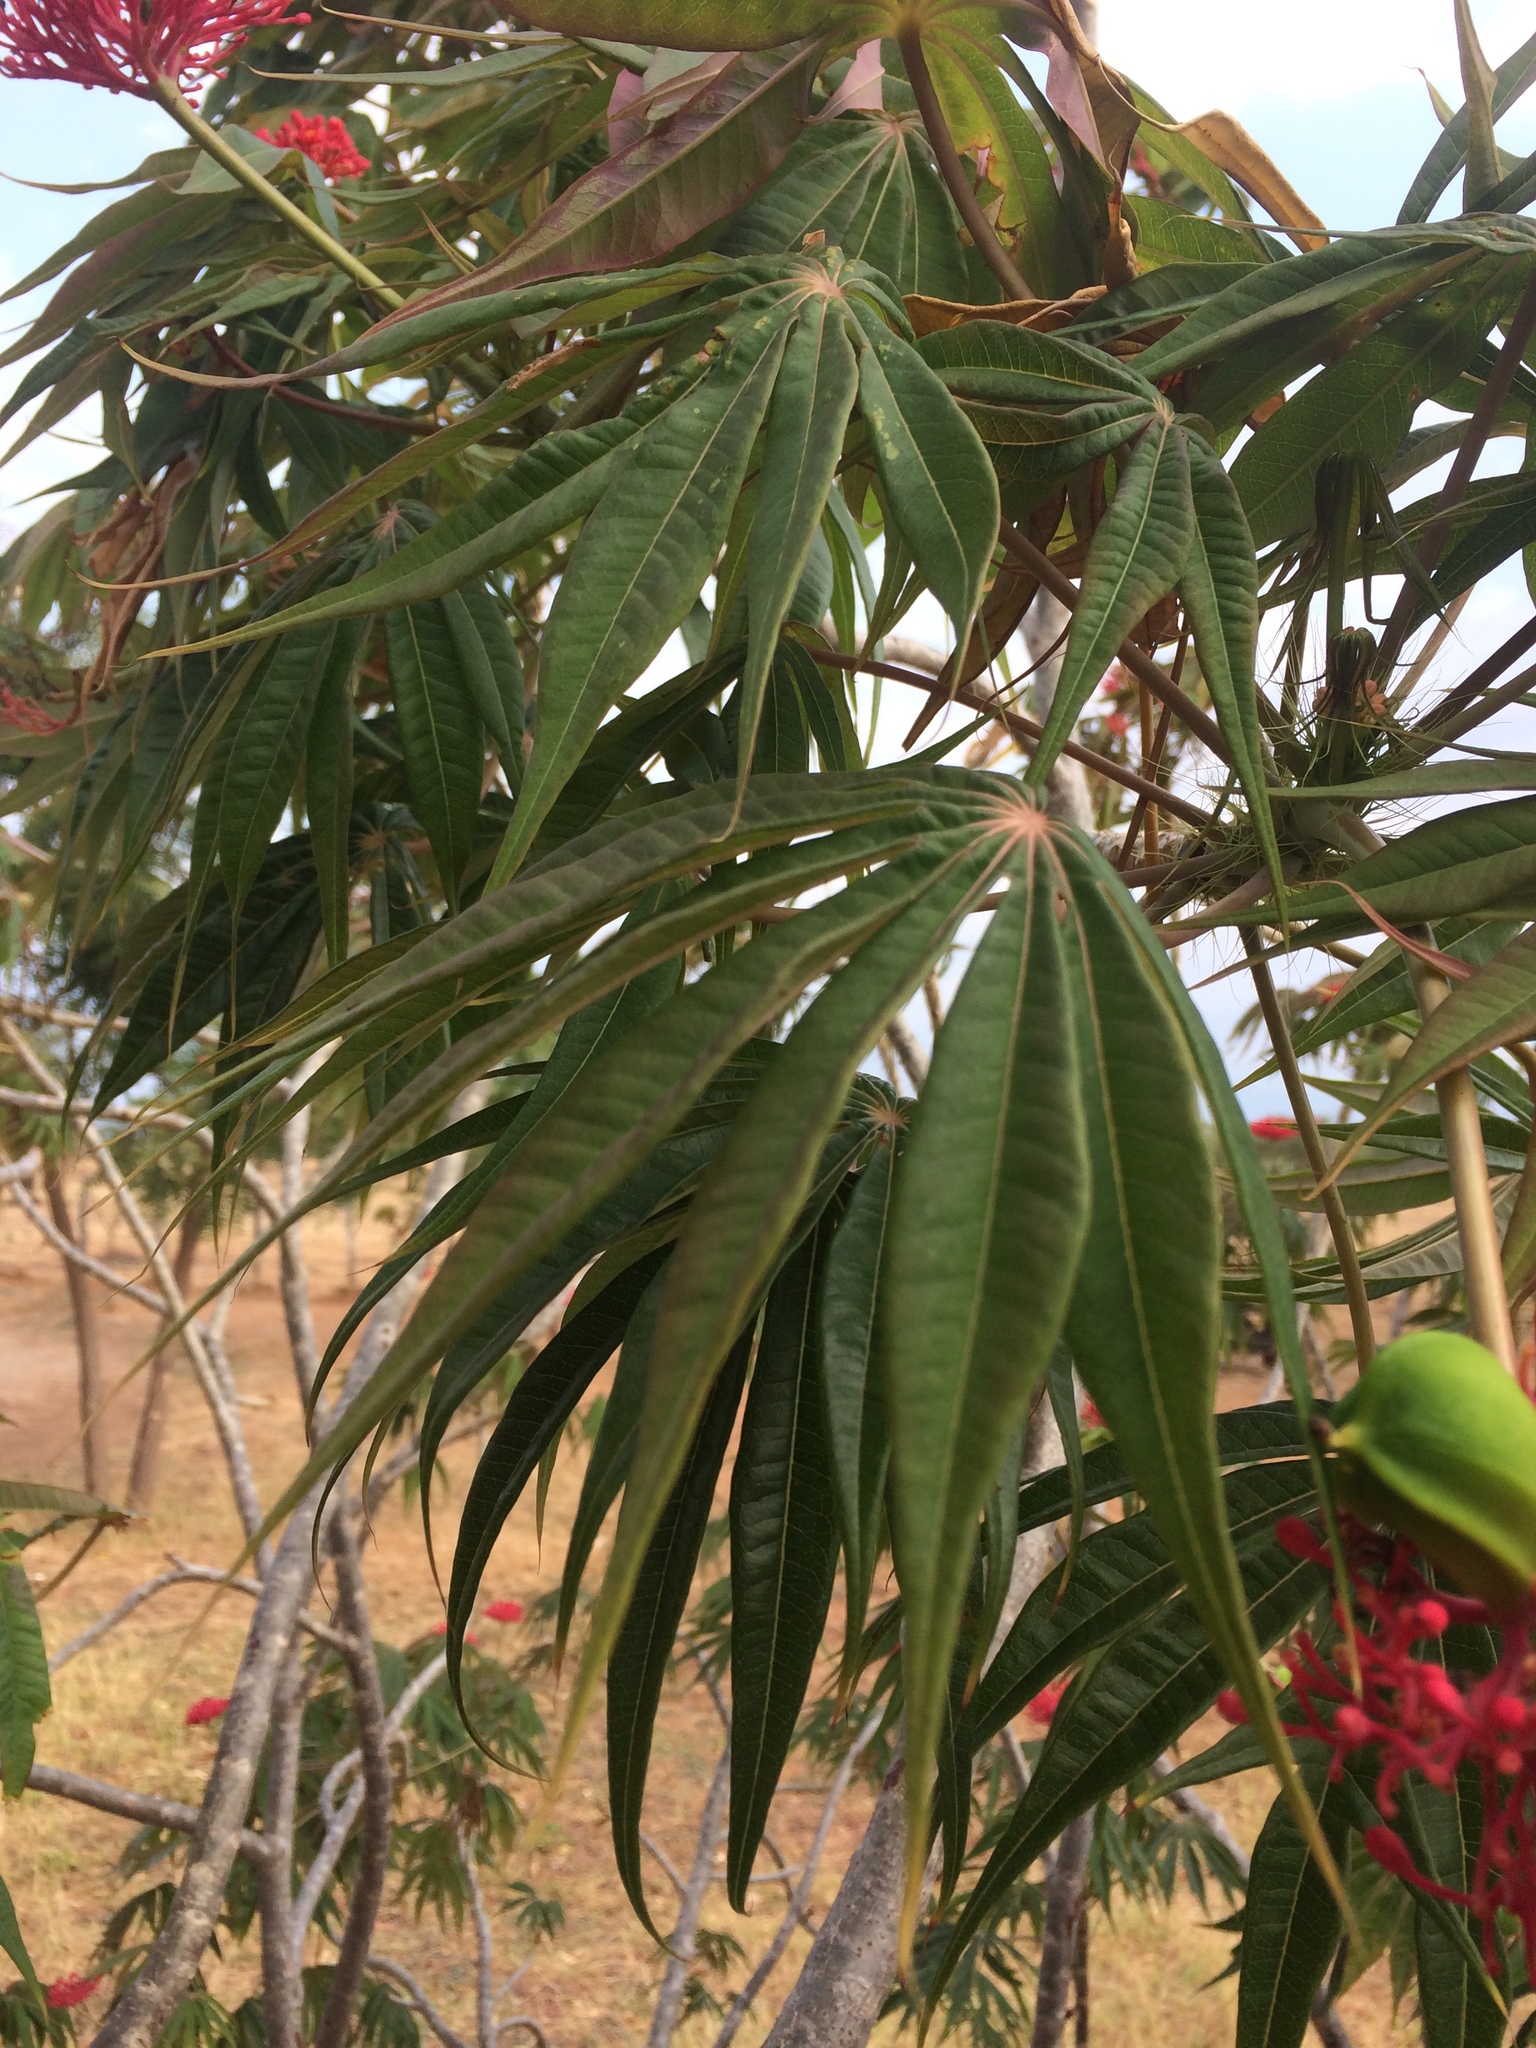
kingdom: Plantae
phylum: Tracheophyta
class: Magnoliopsida
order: Malpighiales
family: Euphorbiaceae
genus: Jatropha
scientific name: Jatropha multifida
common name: Coralbush
